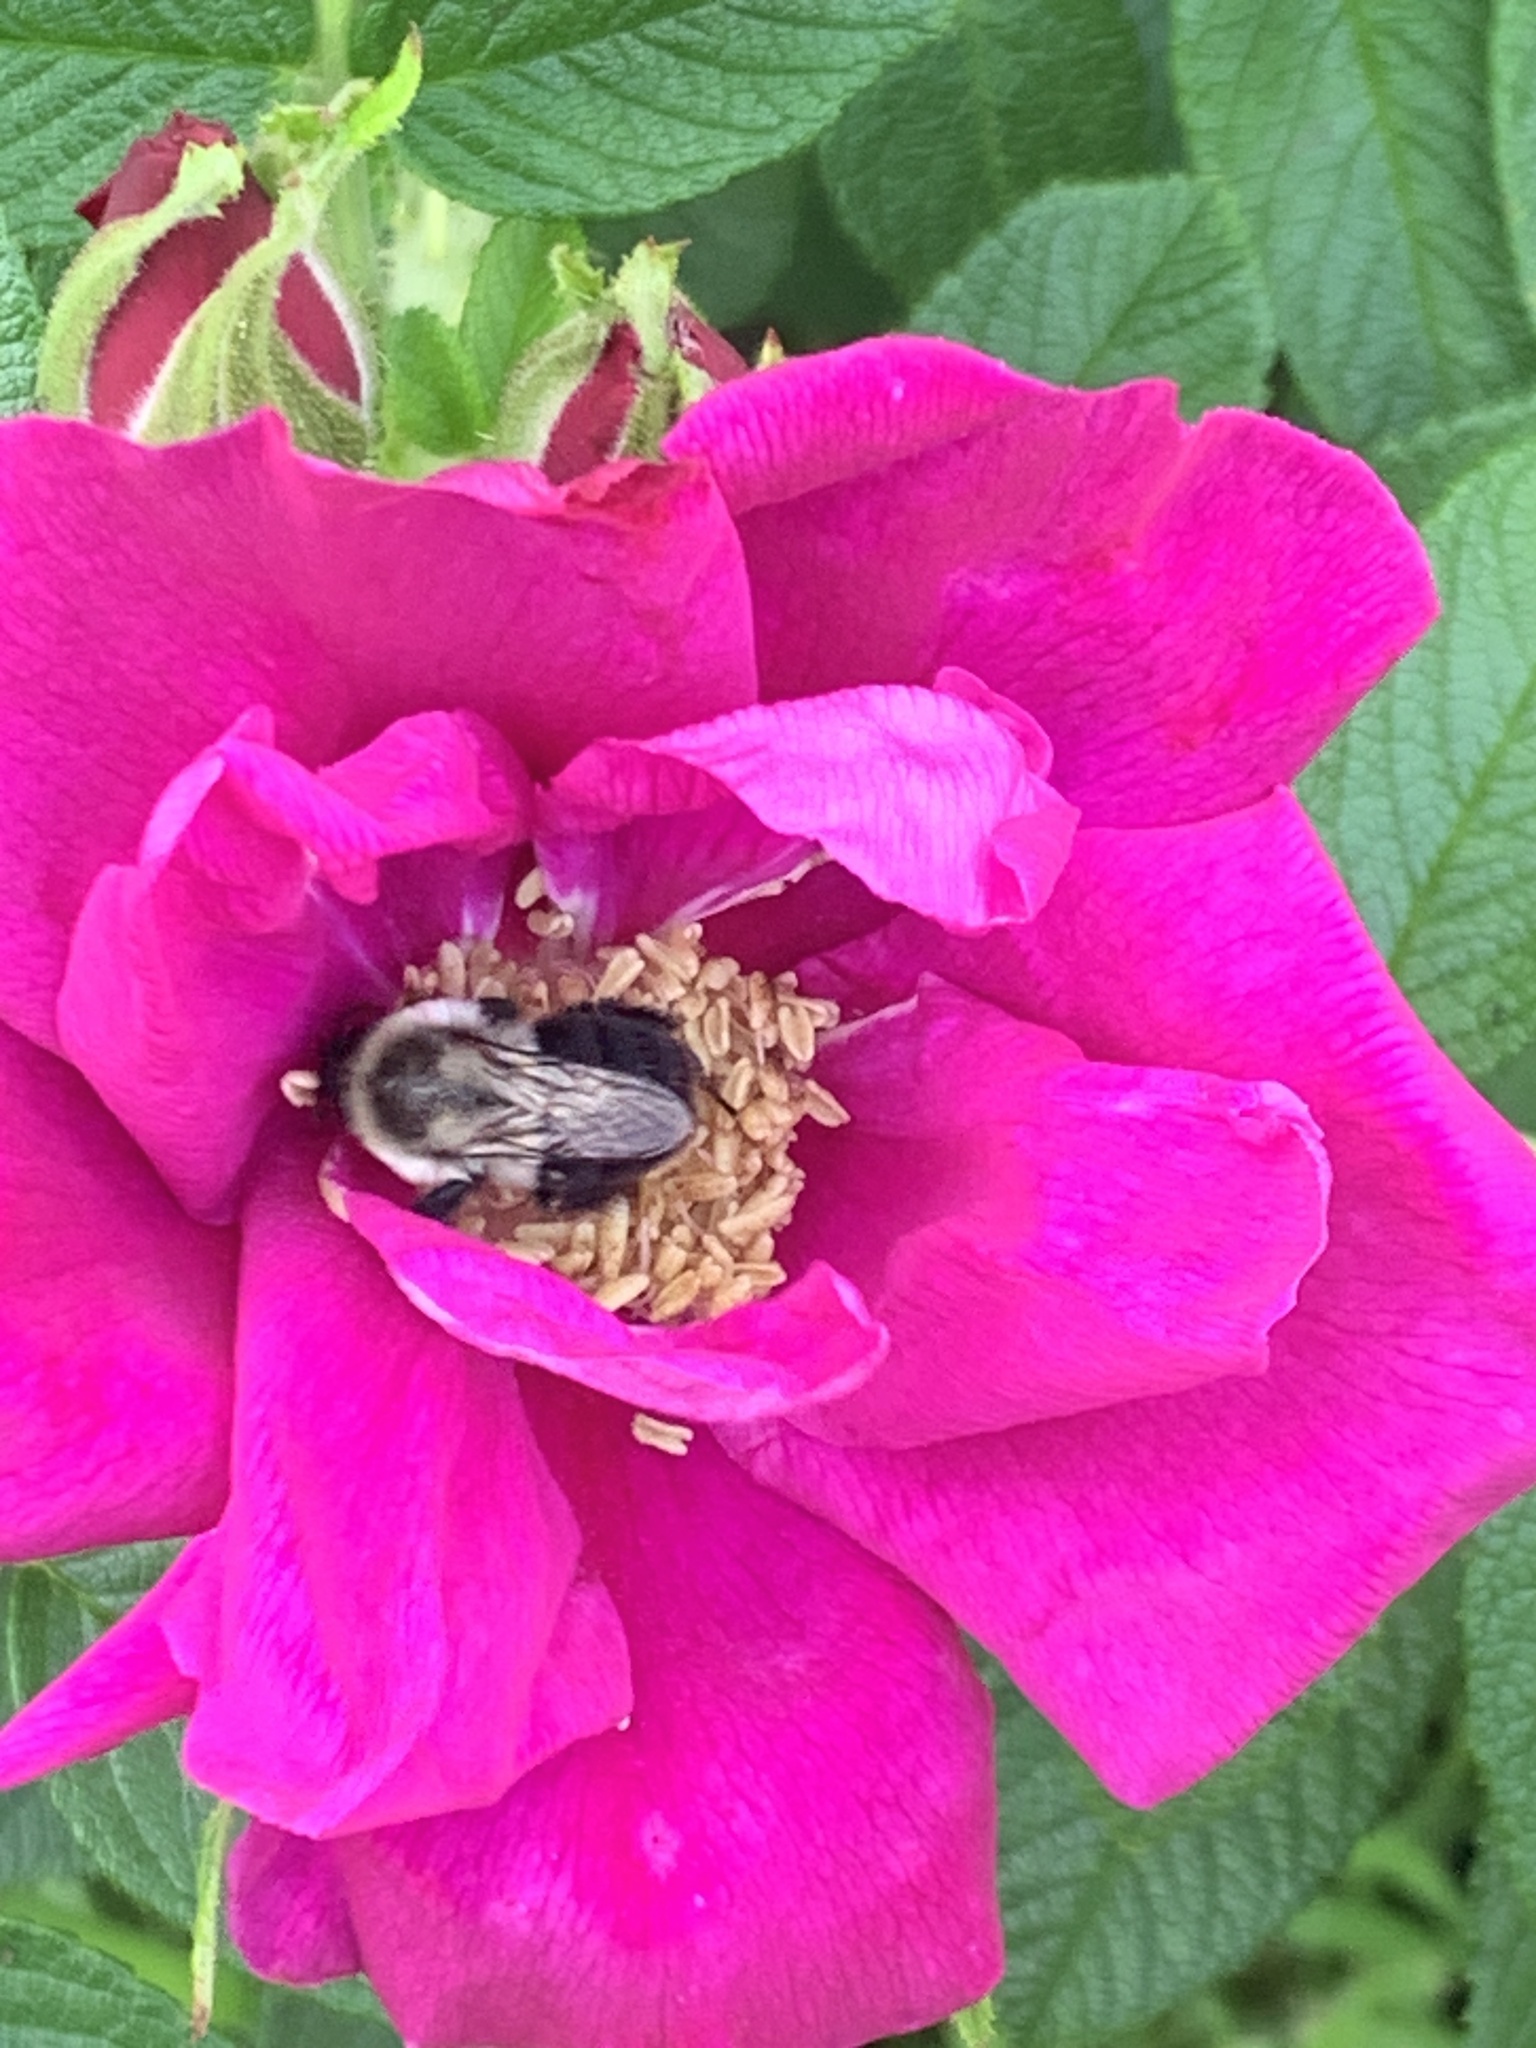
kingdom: Animalia
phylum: Arthropoda
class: Insecta
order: Hymenoptera
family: Apidae
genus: Bombus
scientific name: Bombus impatiens
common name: Common eastern bumble bee
